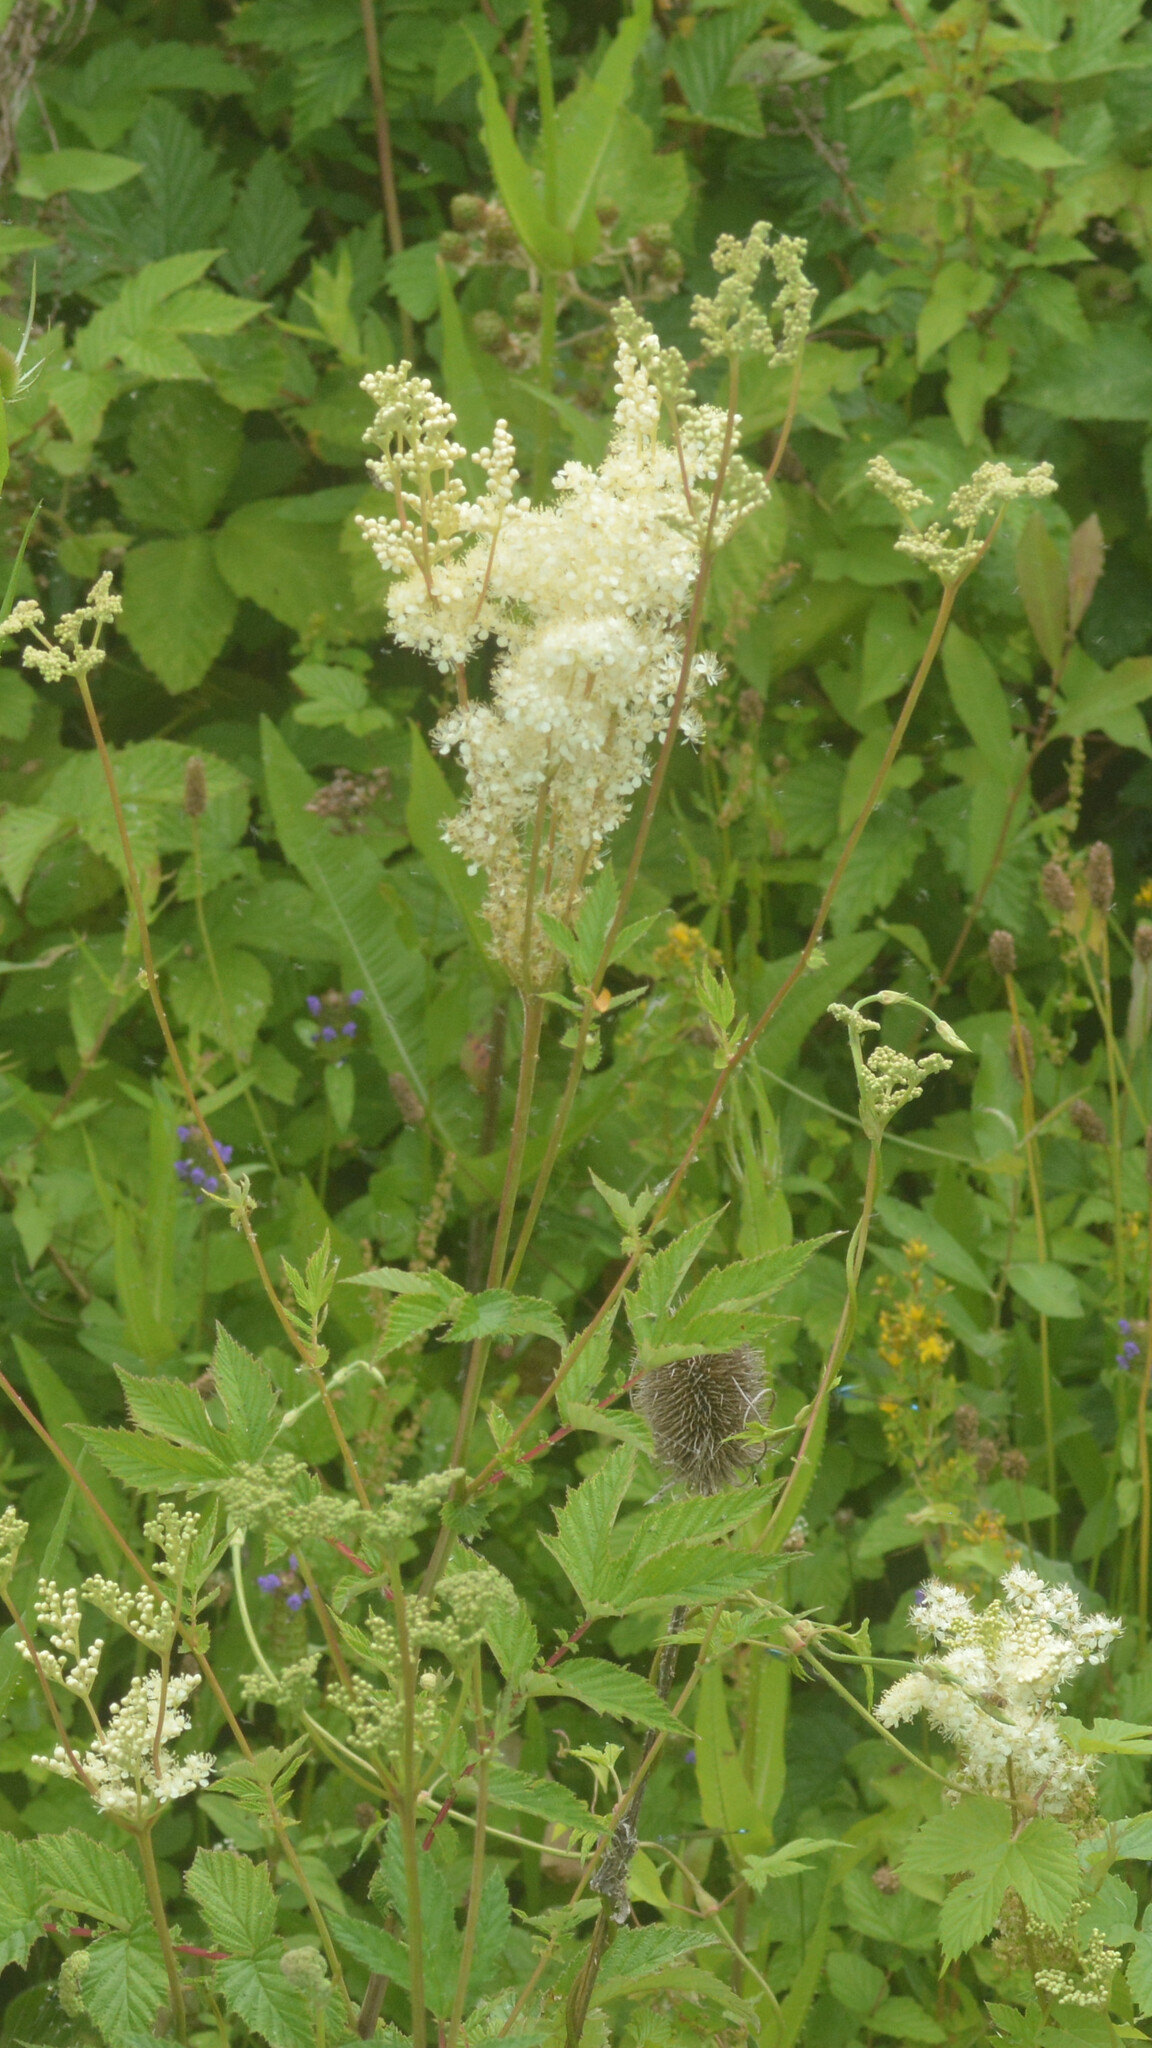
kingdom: Plantae
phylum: Tracheophyta
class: Magnoliopsida
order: Rosales
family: Rosaceae
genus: Filipendula
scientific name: Filipendula ulmaria
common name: Meadowsweet
